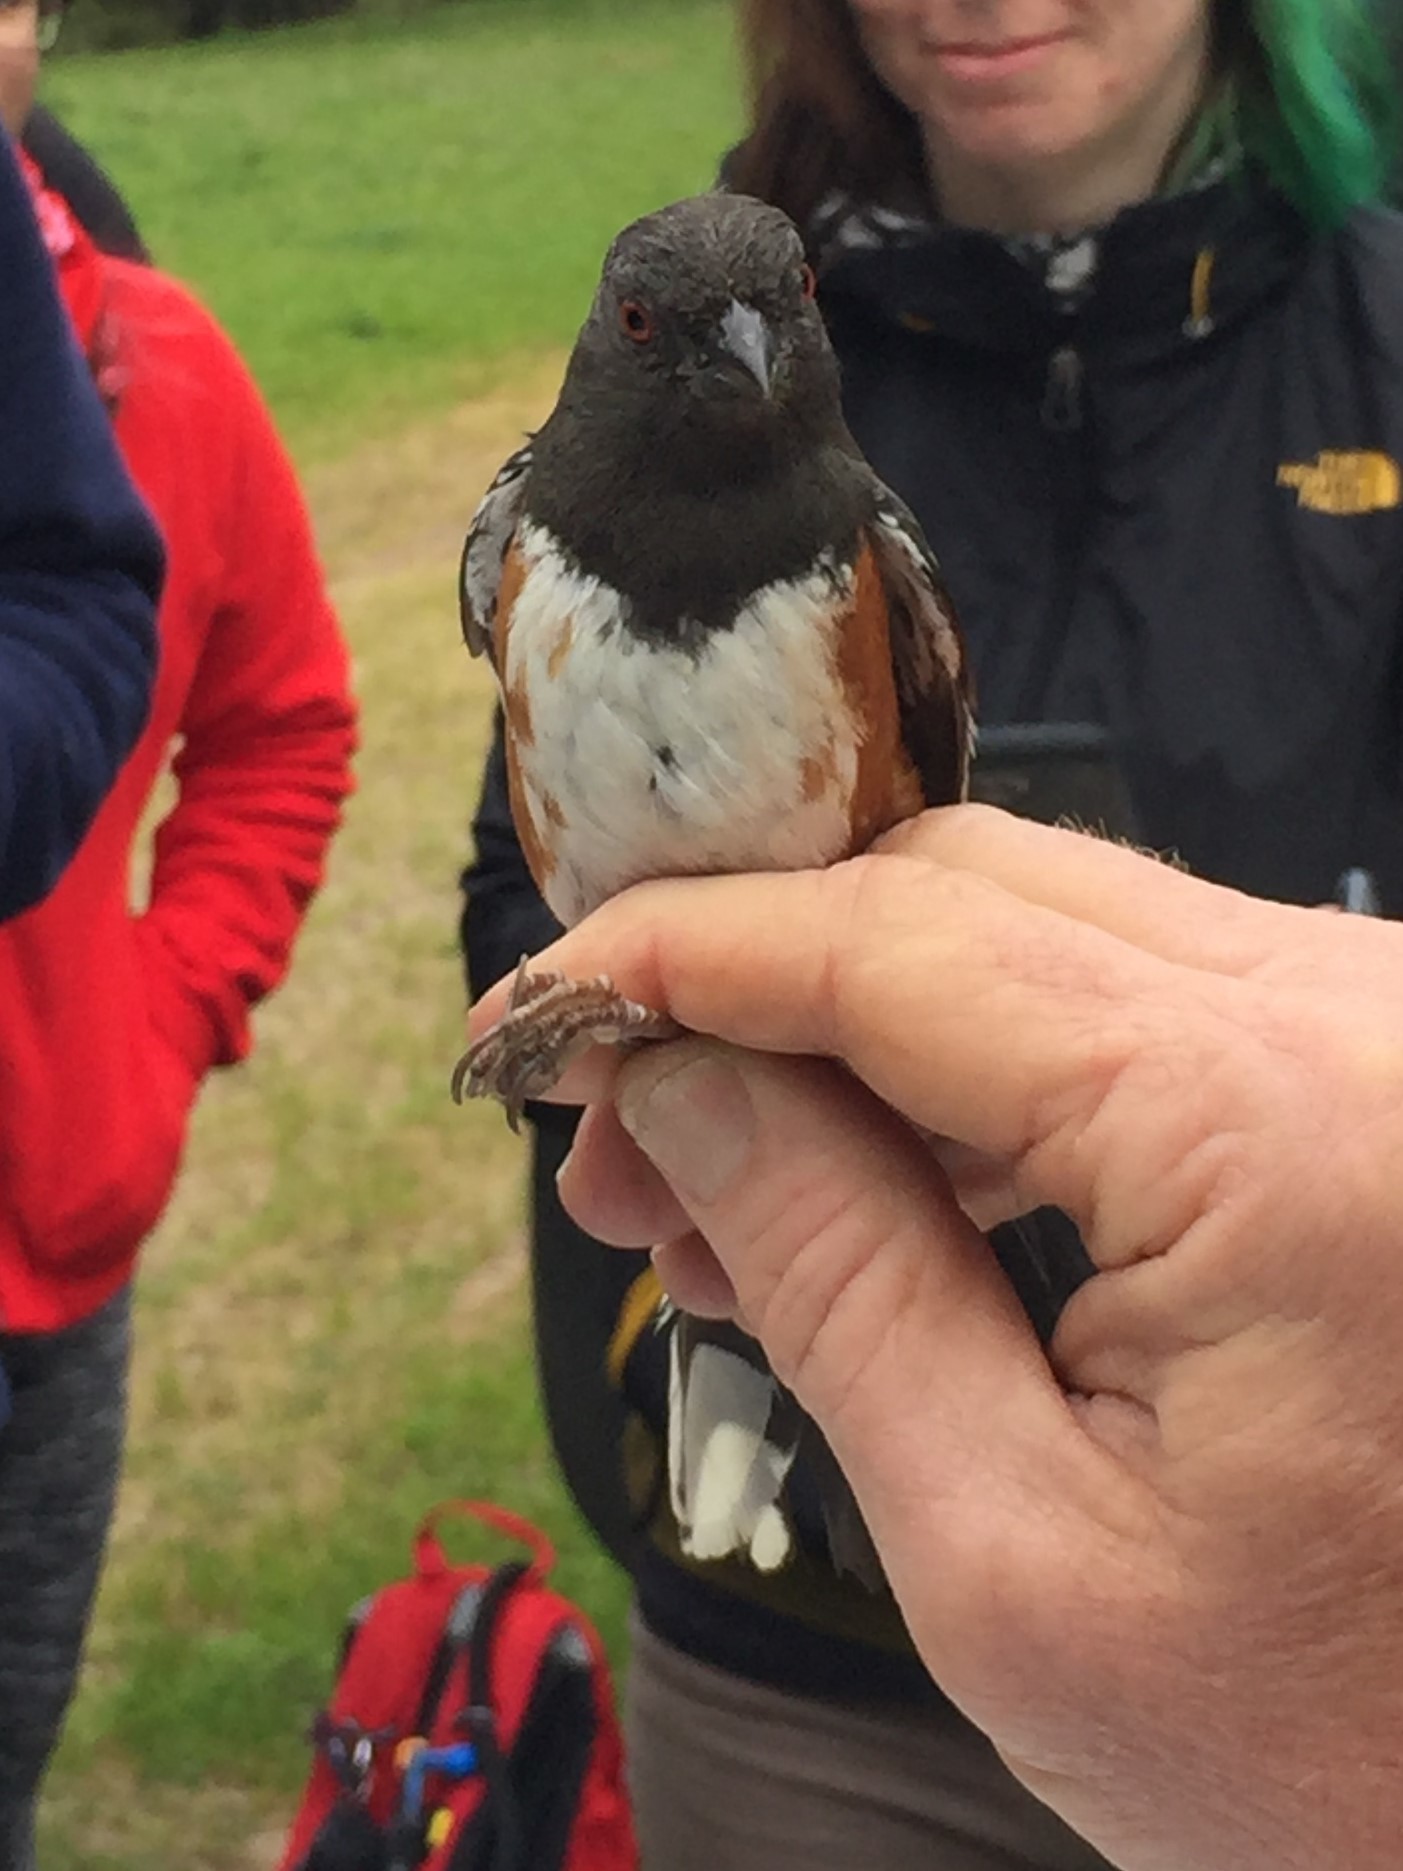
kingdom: Animalia
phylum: Chordata
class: Aves
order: Passeriformes
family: Passerellidae
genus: Pipilo
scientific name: Pipilo maculatus
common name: Spotted towhee
